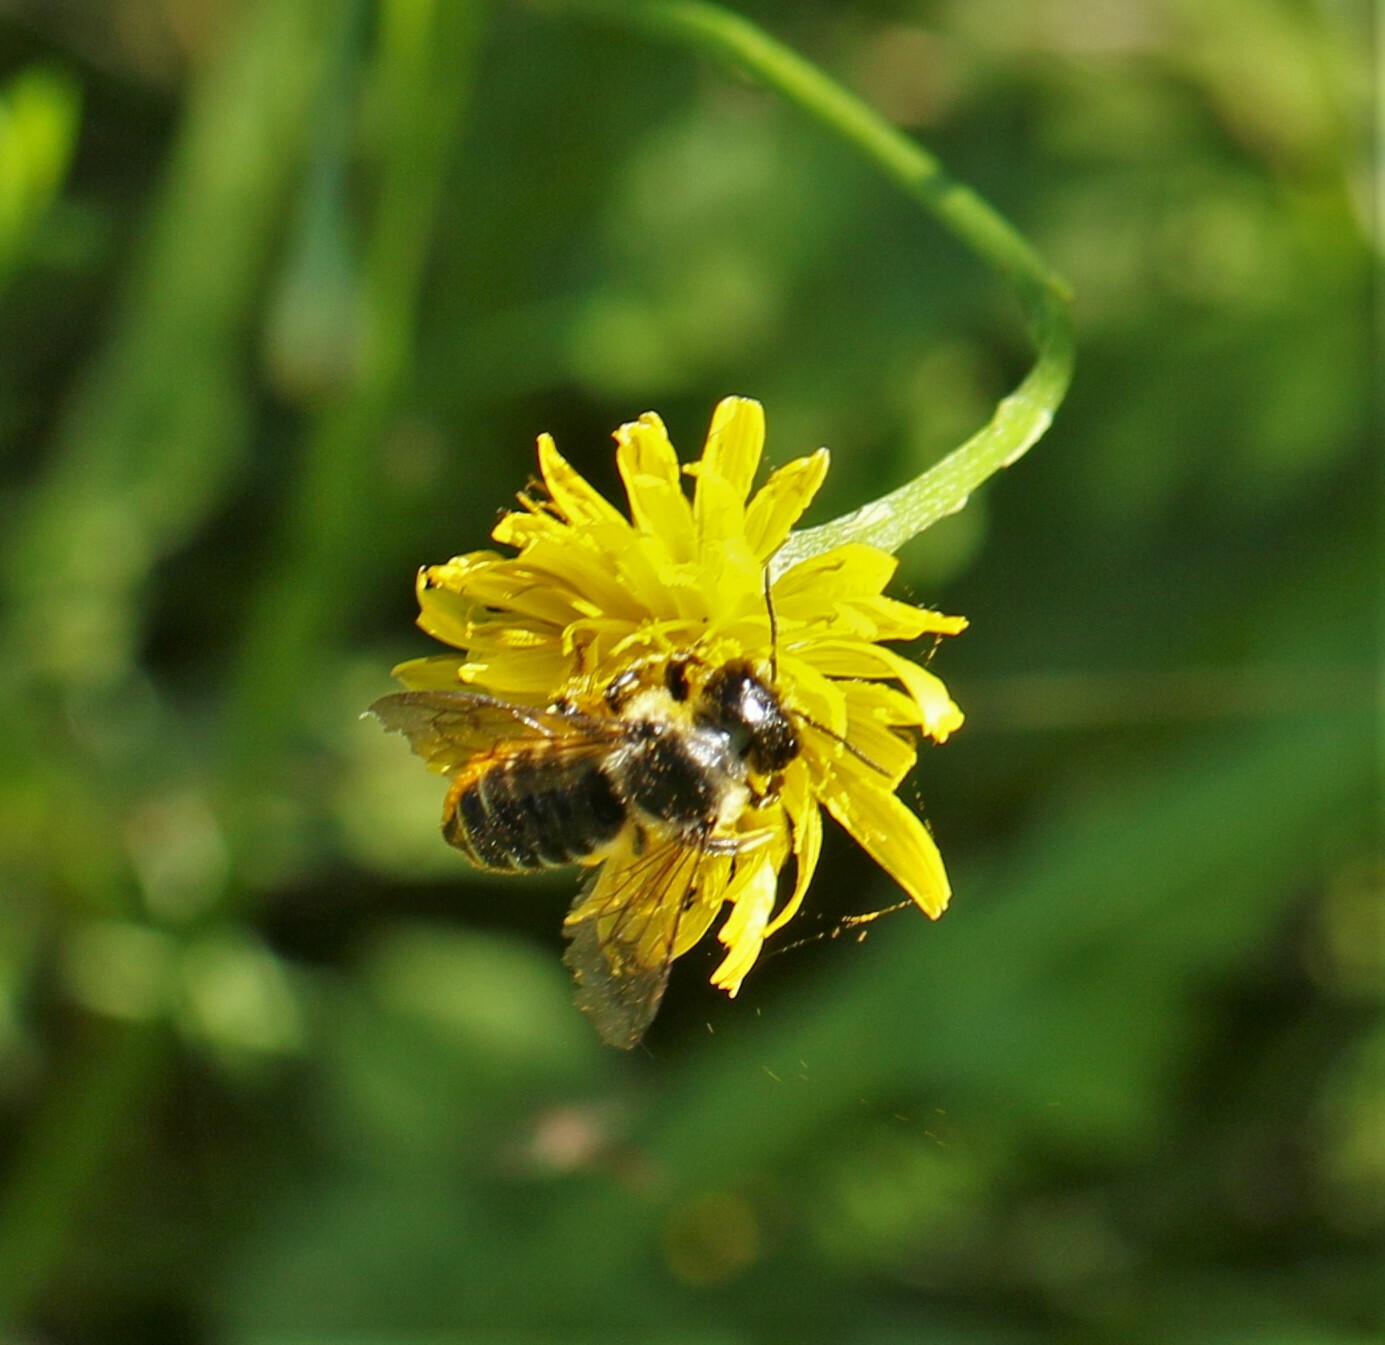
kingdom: Animalia
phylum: Arthropoda
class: Insecta
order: Hymenoptera
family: Megachilidae
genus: Megachile
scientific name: Megachile inermis
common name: Unarmed leafcutter bee
